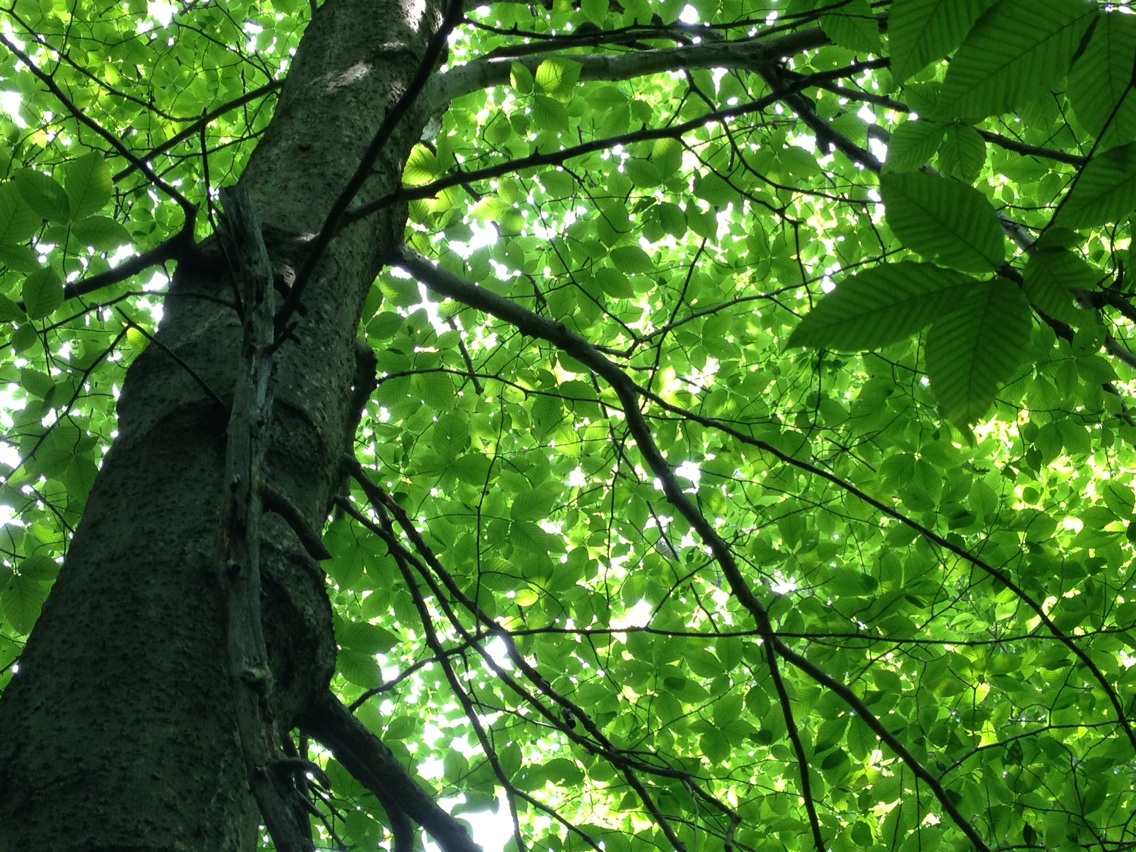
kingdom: Plantae
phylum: Tracheophyta
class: Magnoliopsida
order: Fagales
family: Fagaceae
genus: Fagus
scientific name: Fagus grandifolia
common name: American beech
